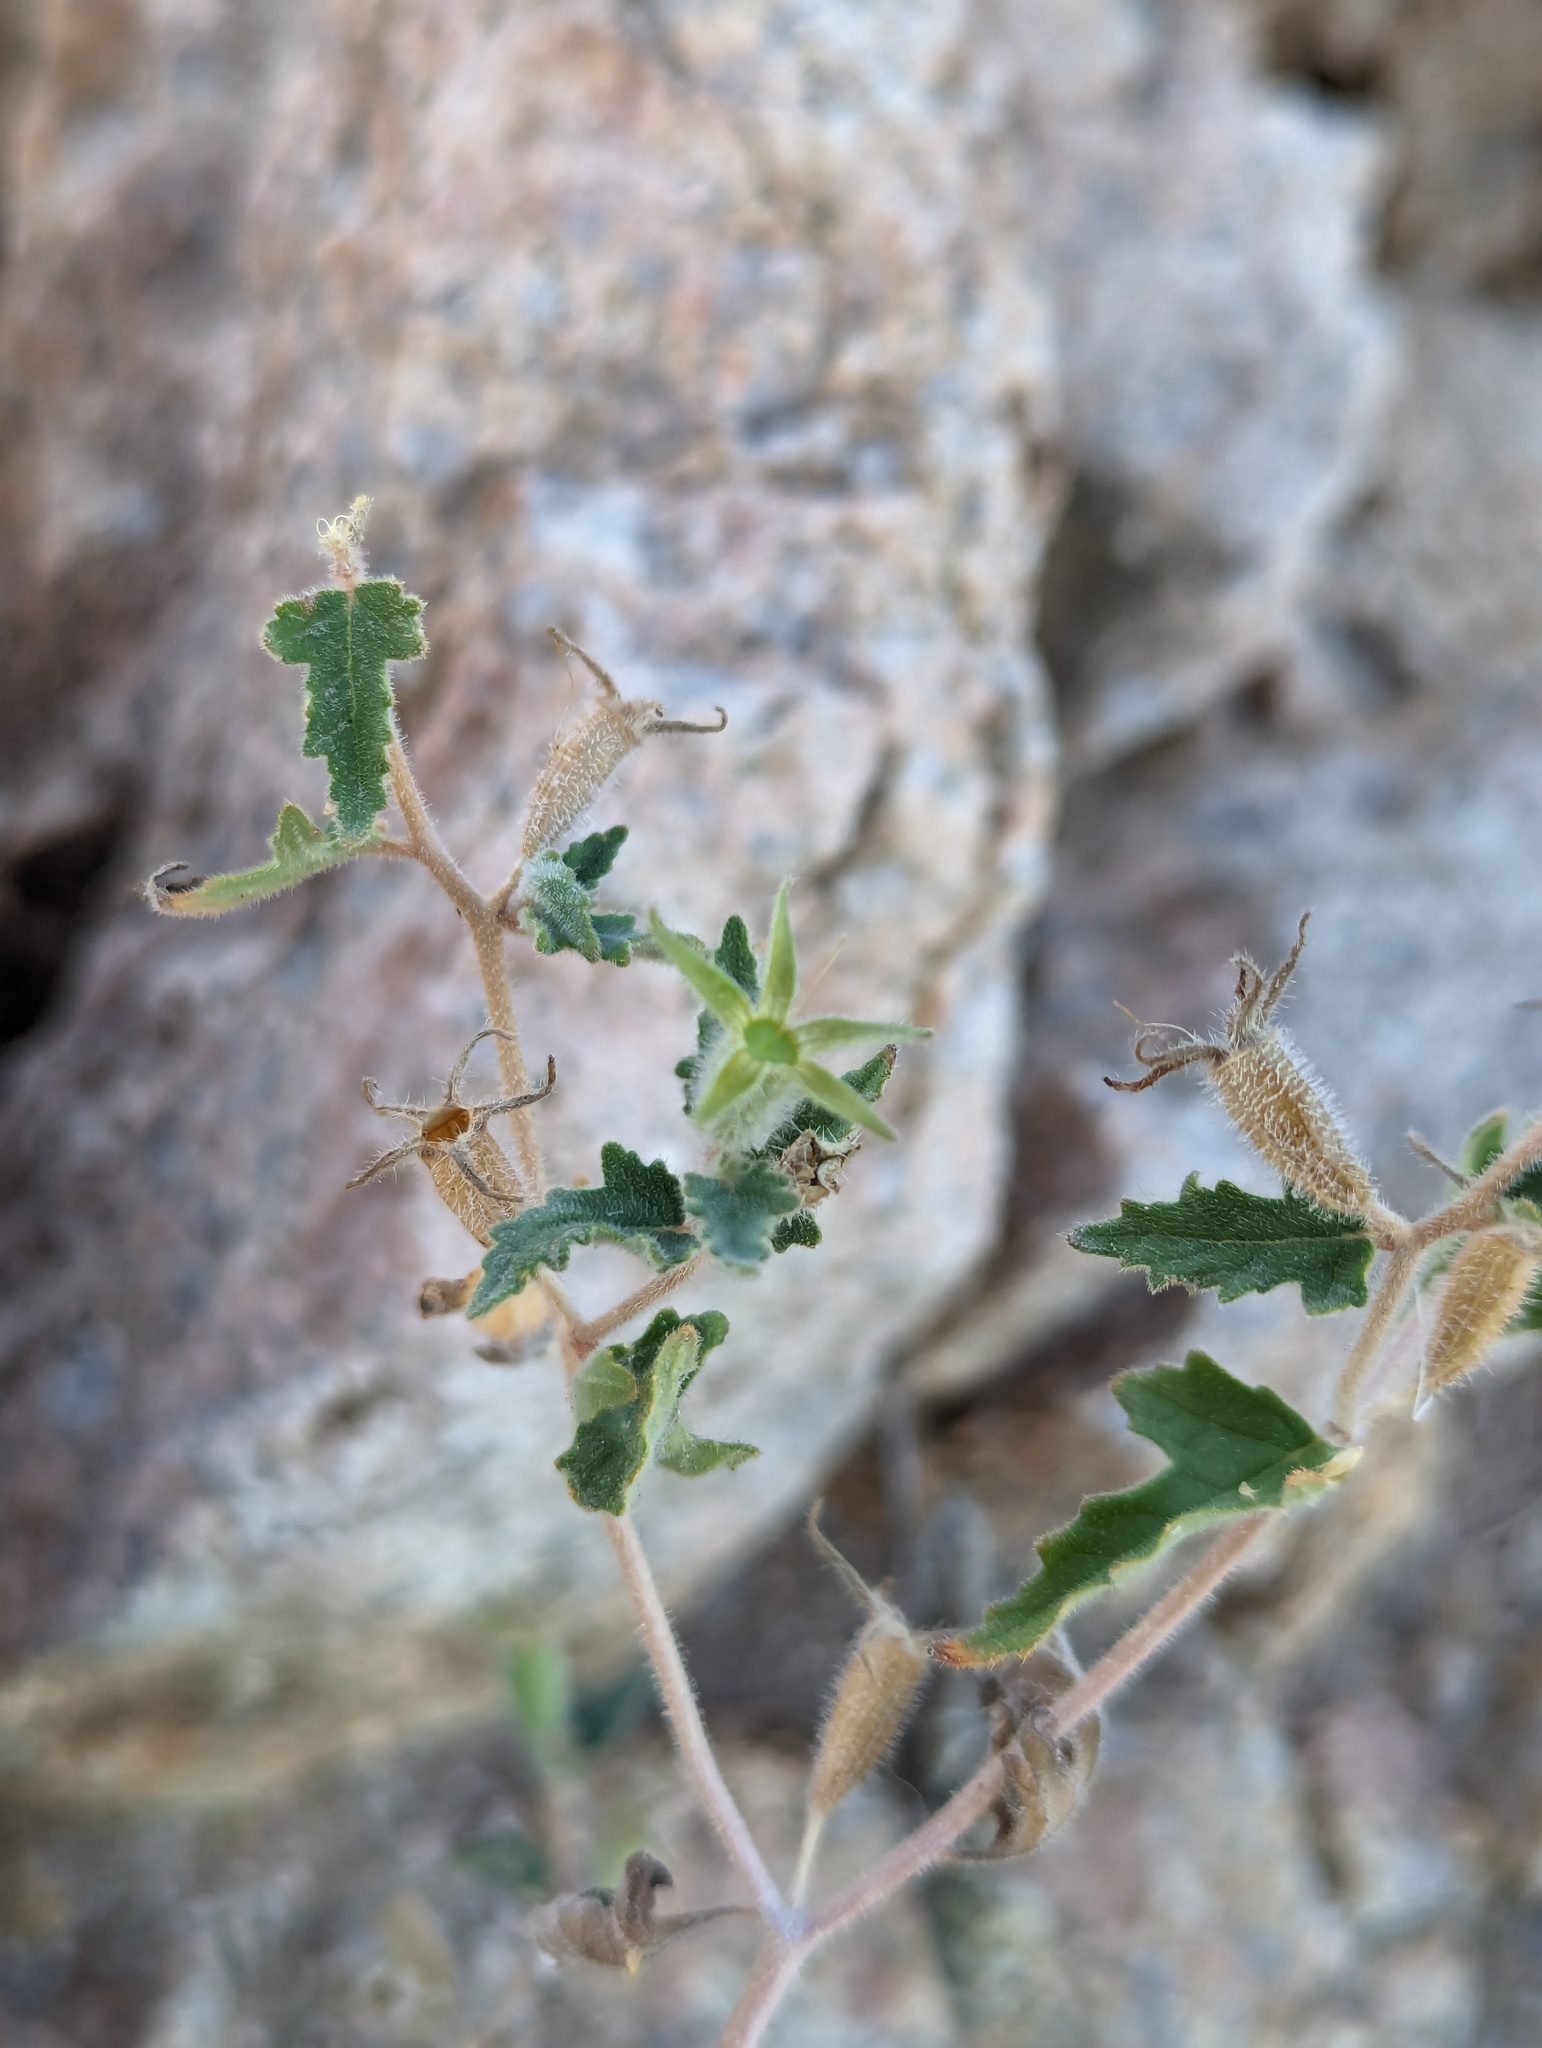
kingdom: Plantae
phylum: Tracheophyta
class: Magnoliopsida
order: Cornales
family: Loasaceae
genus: Mentzelia
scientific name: Mentzelia adhaerens
